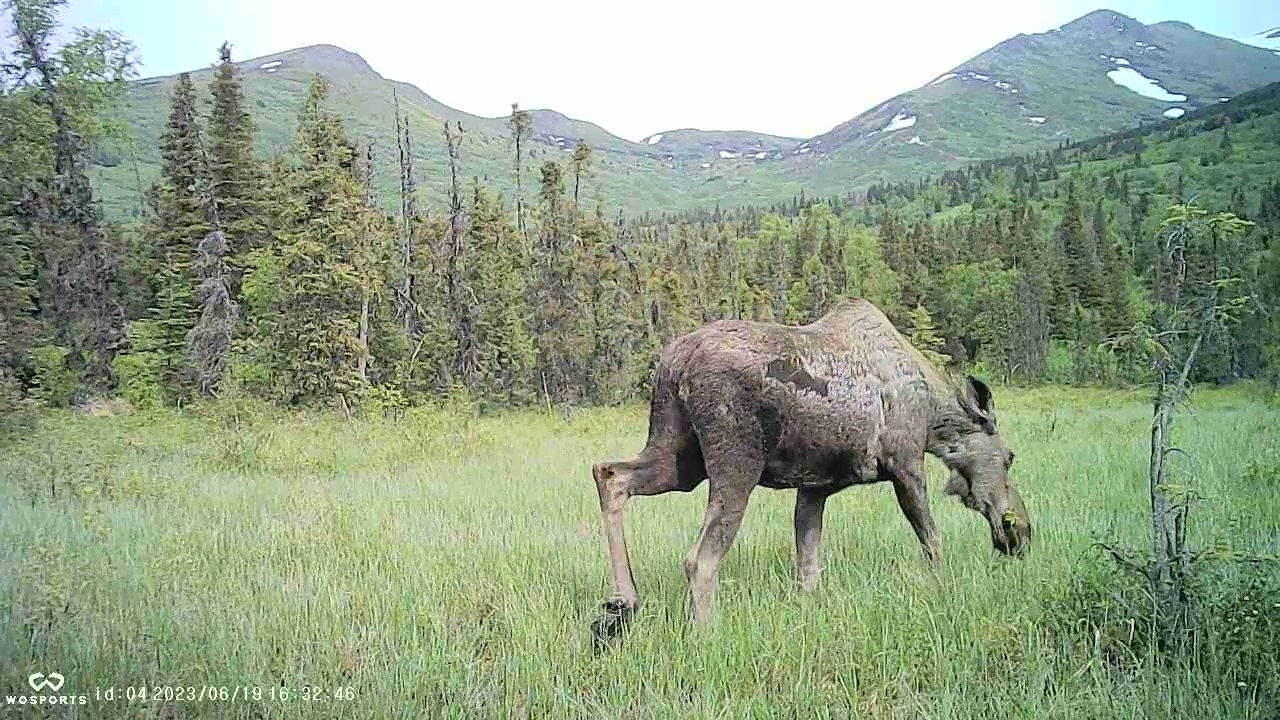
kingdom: Animalia
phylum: Chordata
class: Mammalia
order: Artiodactyla
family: Cervidae
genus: Alces
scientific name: Alces alces
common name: Moose
